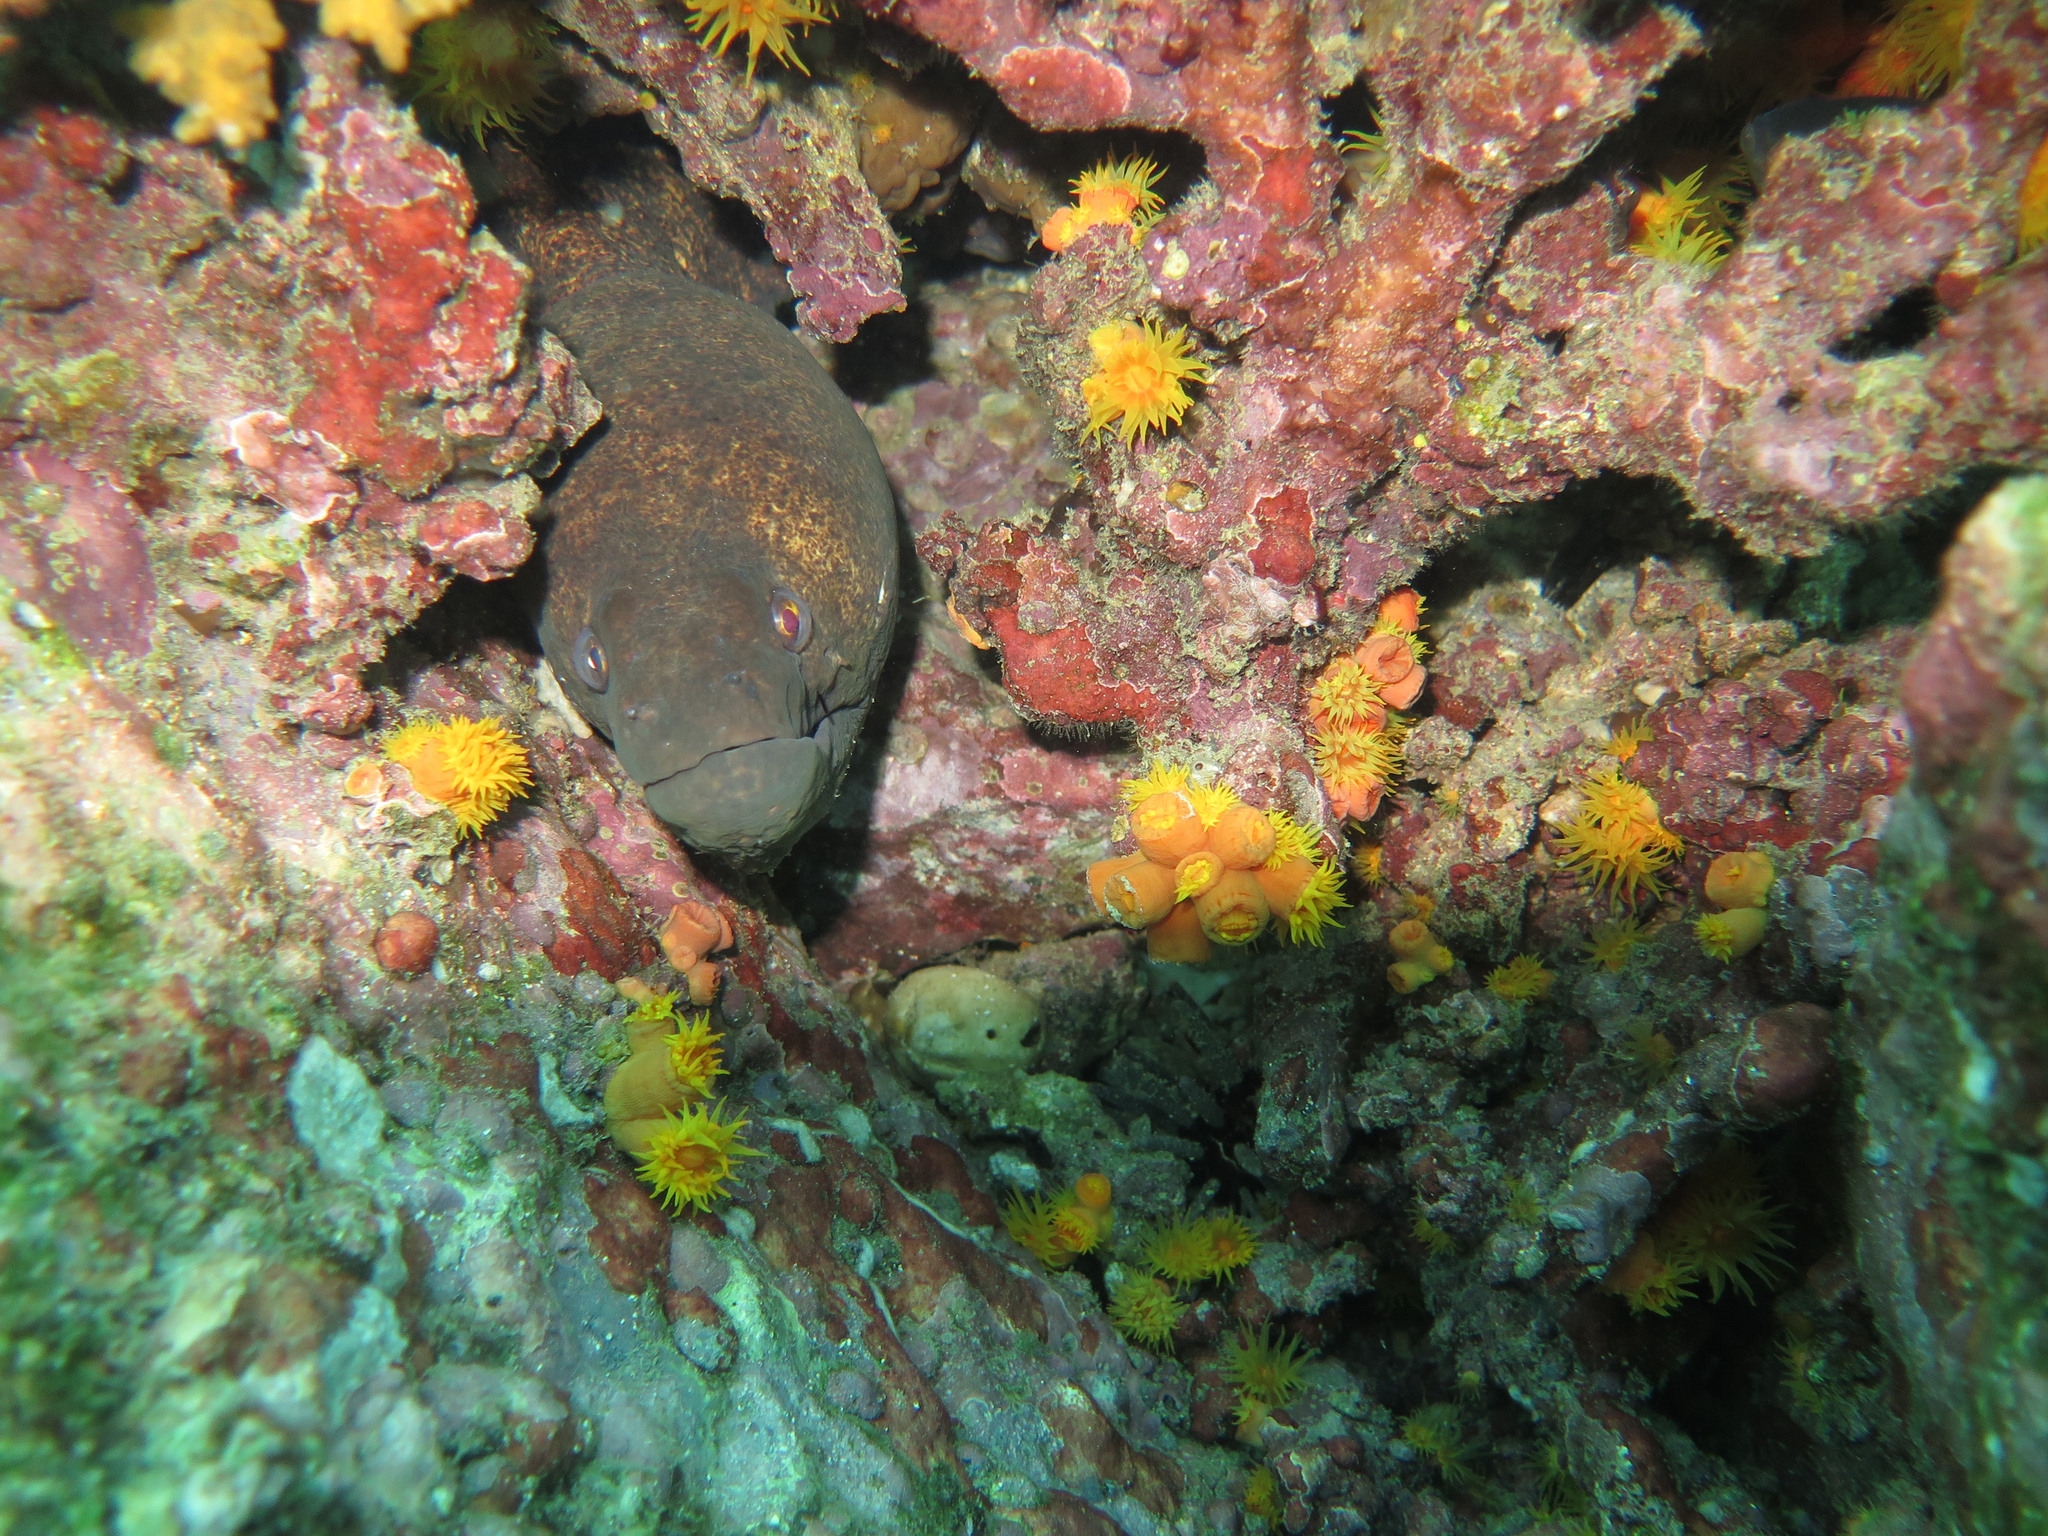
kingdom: Animalia
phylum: Chordata
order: Anguilliformes
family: Muraenidae
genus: Gymnothorax
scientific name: Gymnothorax flavimarginatus
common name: Yellow-edged moray
